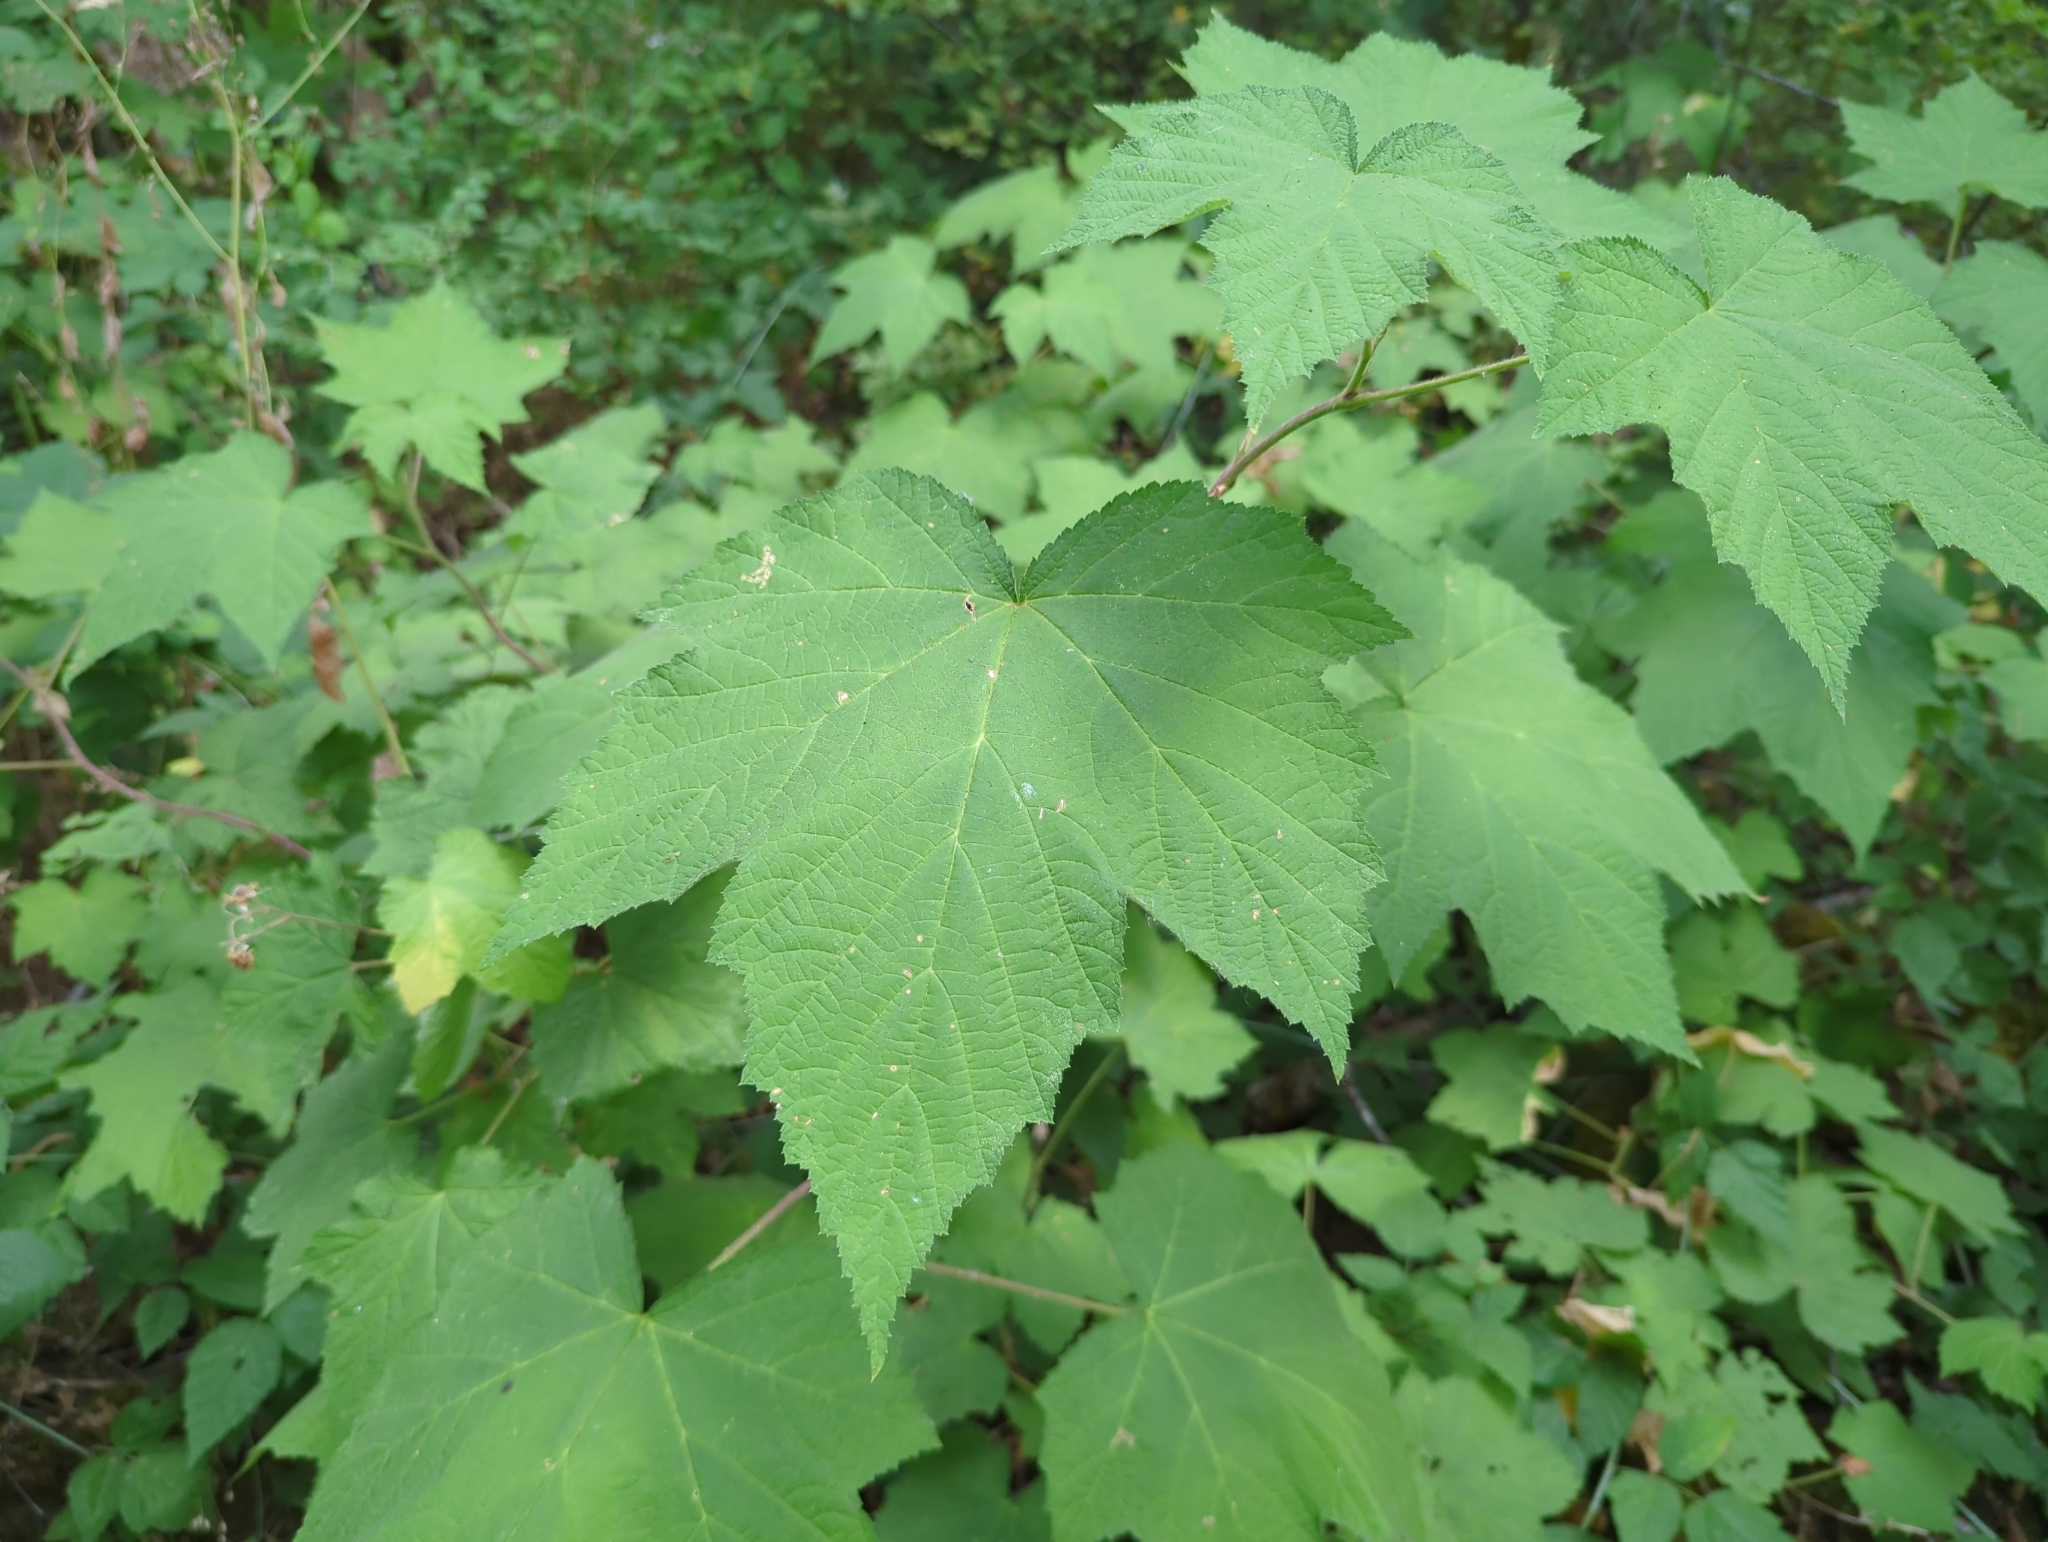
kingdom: Plantae
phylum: Tracheophyta
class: Magnoliopsida
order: Rosales
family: Rosaceae
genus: Rubus
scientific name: Rubus parviflorus
